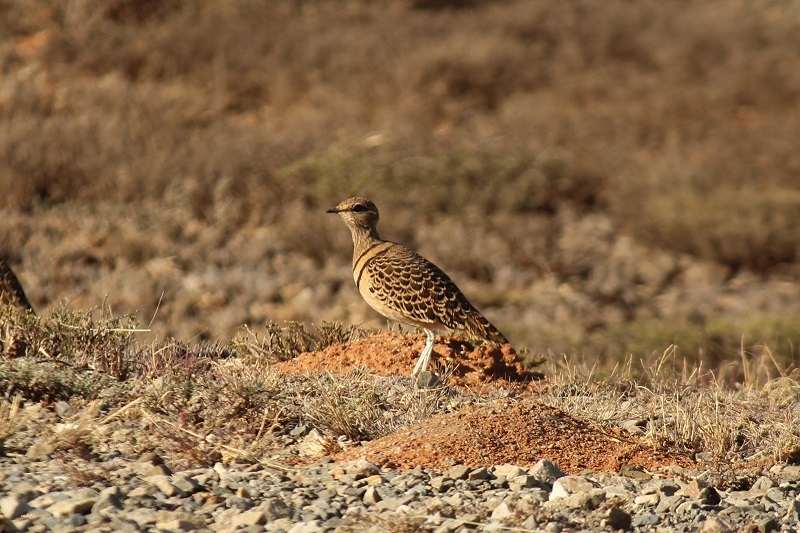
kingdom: Animalia
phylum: Chordata
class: Aves
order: Charadriiformes
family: Glareolidae
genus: Rhinoptilus
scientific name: Rhinoptilus africanus
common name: Double-banded courser
